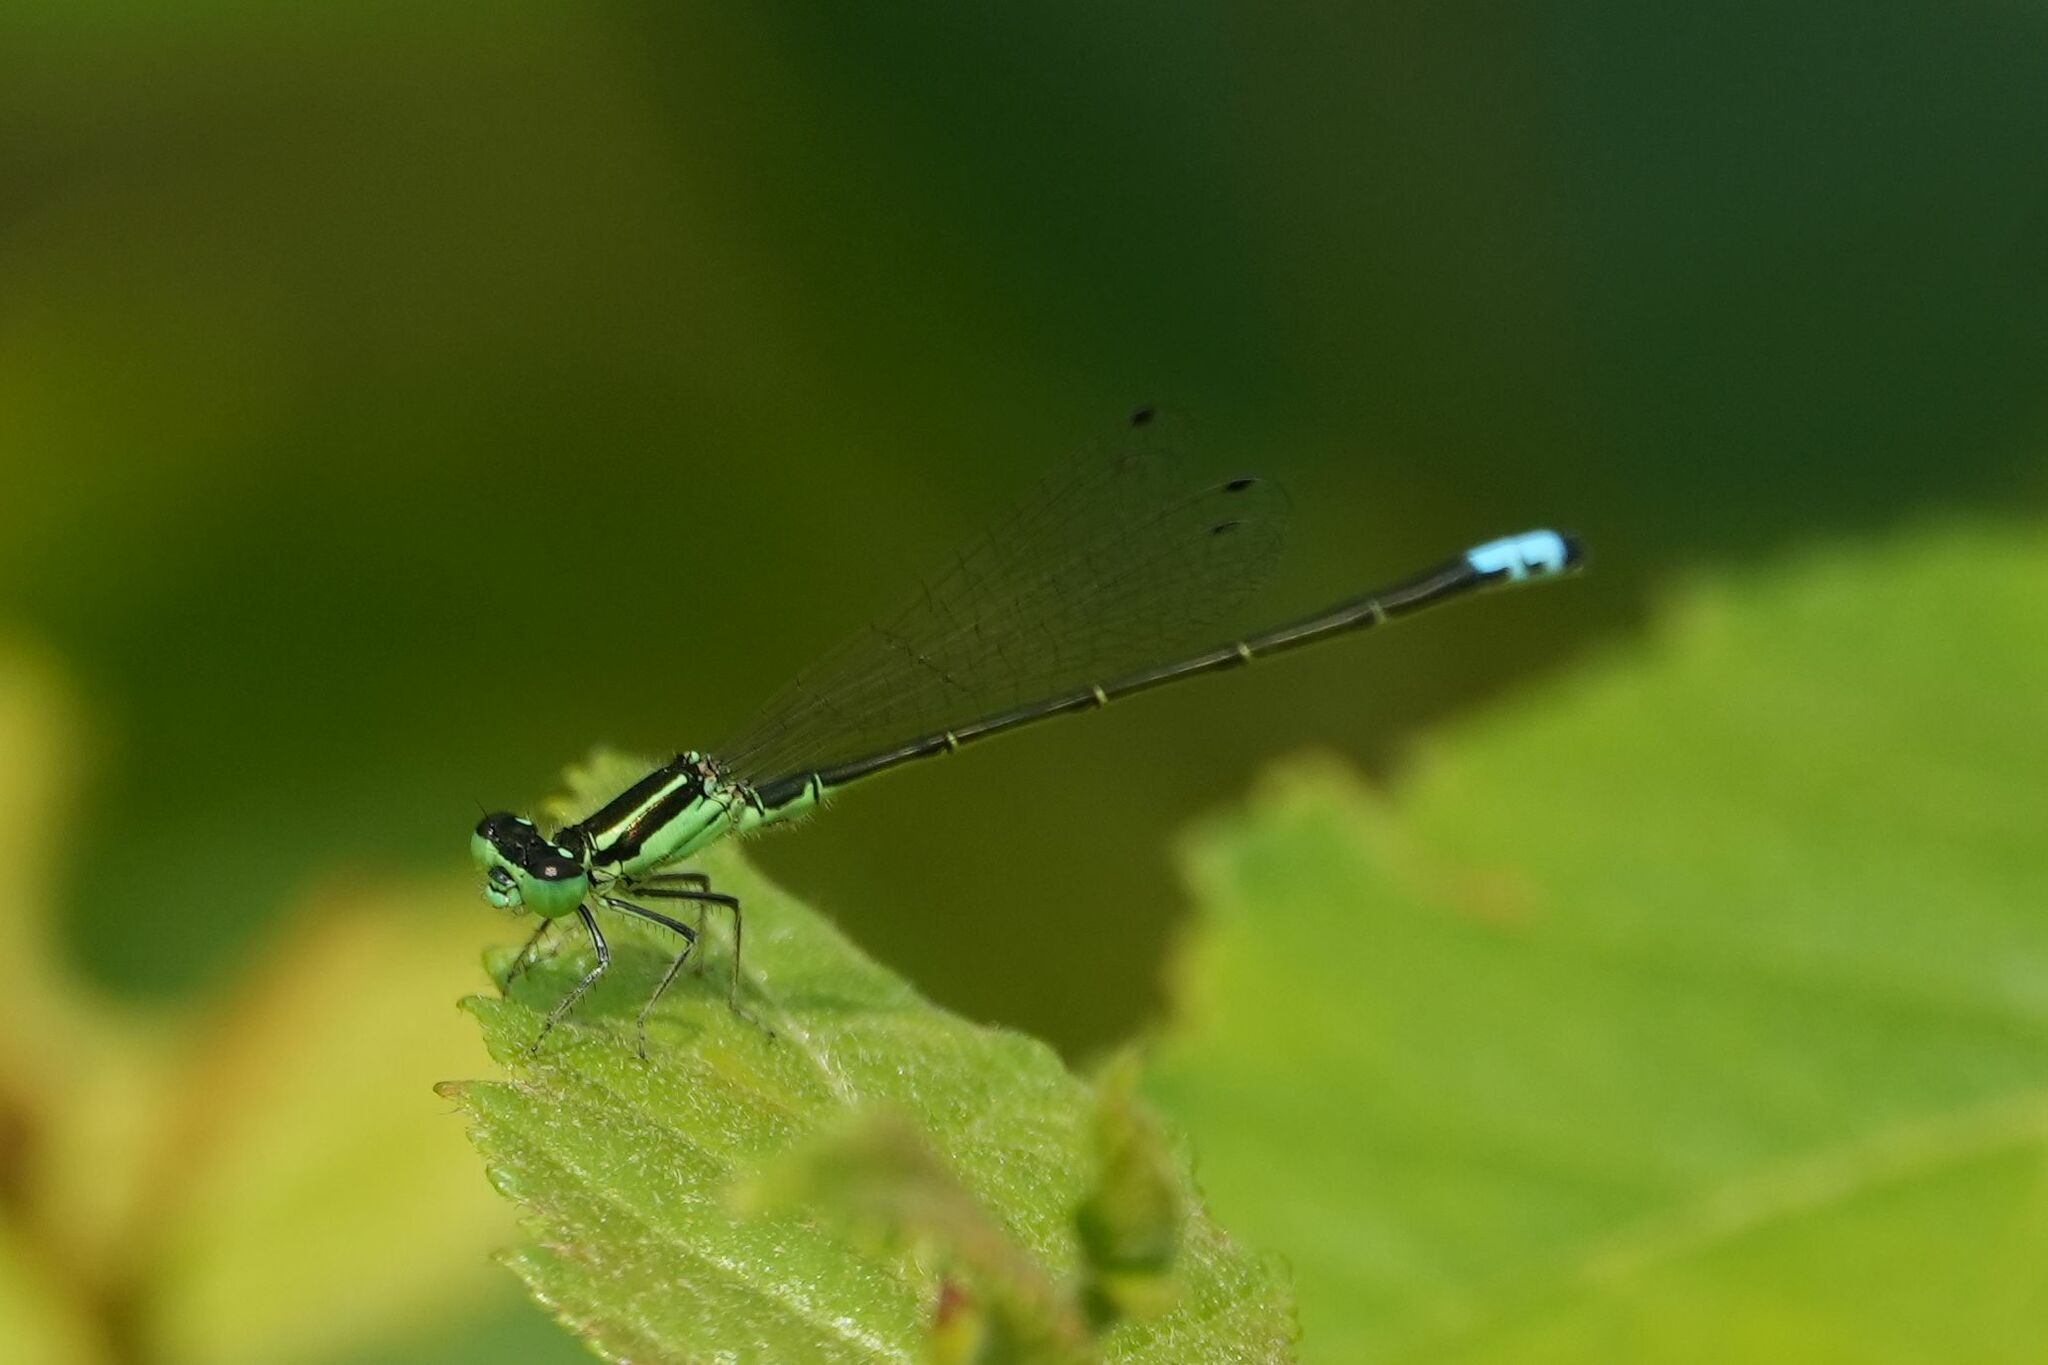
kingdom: Animalia
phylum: Arthropoda
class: Insecta
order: Odonata
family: Coenagrionidae
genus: Ischnura
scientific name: Ischnura verticalis
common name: Eastern forktail
